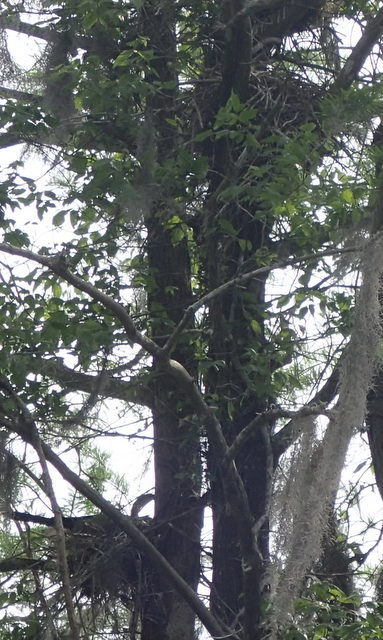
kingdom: Animalia
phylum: Chordata
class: Aves
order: Suliformes
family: Anhingidae
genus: Anhinga
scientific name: Anhinga anhinga
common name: Anhinga
